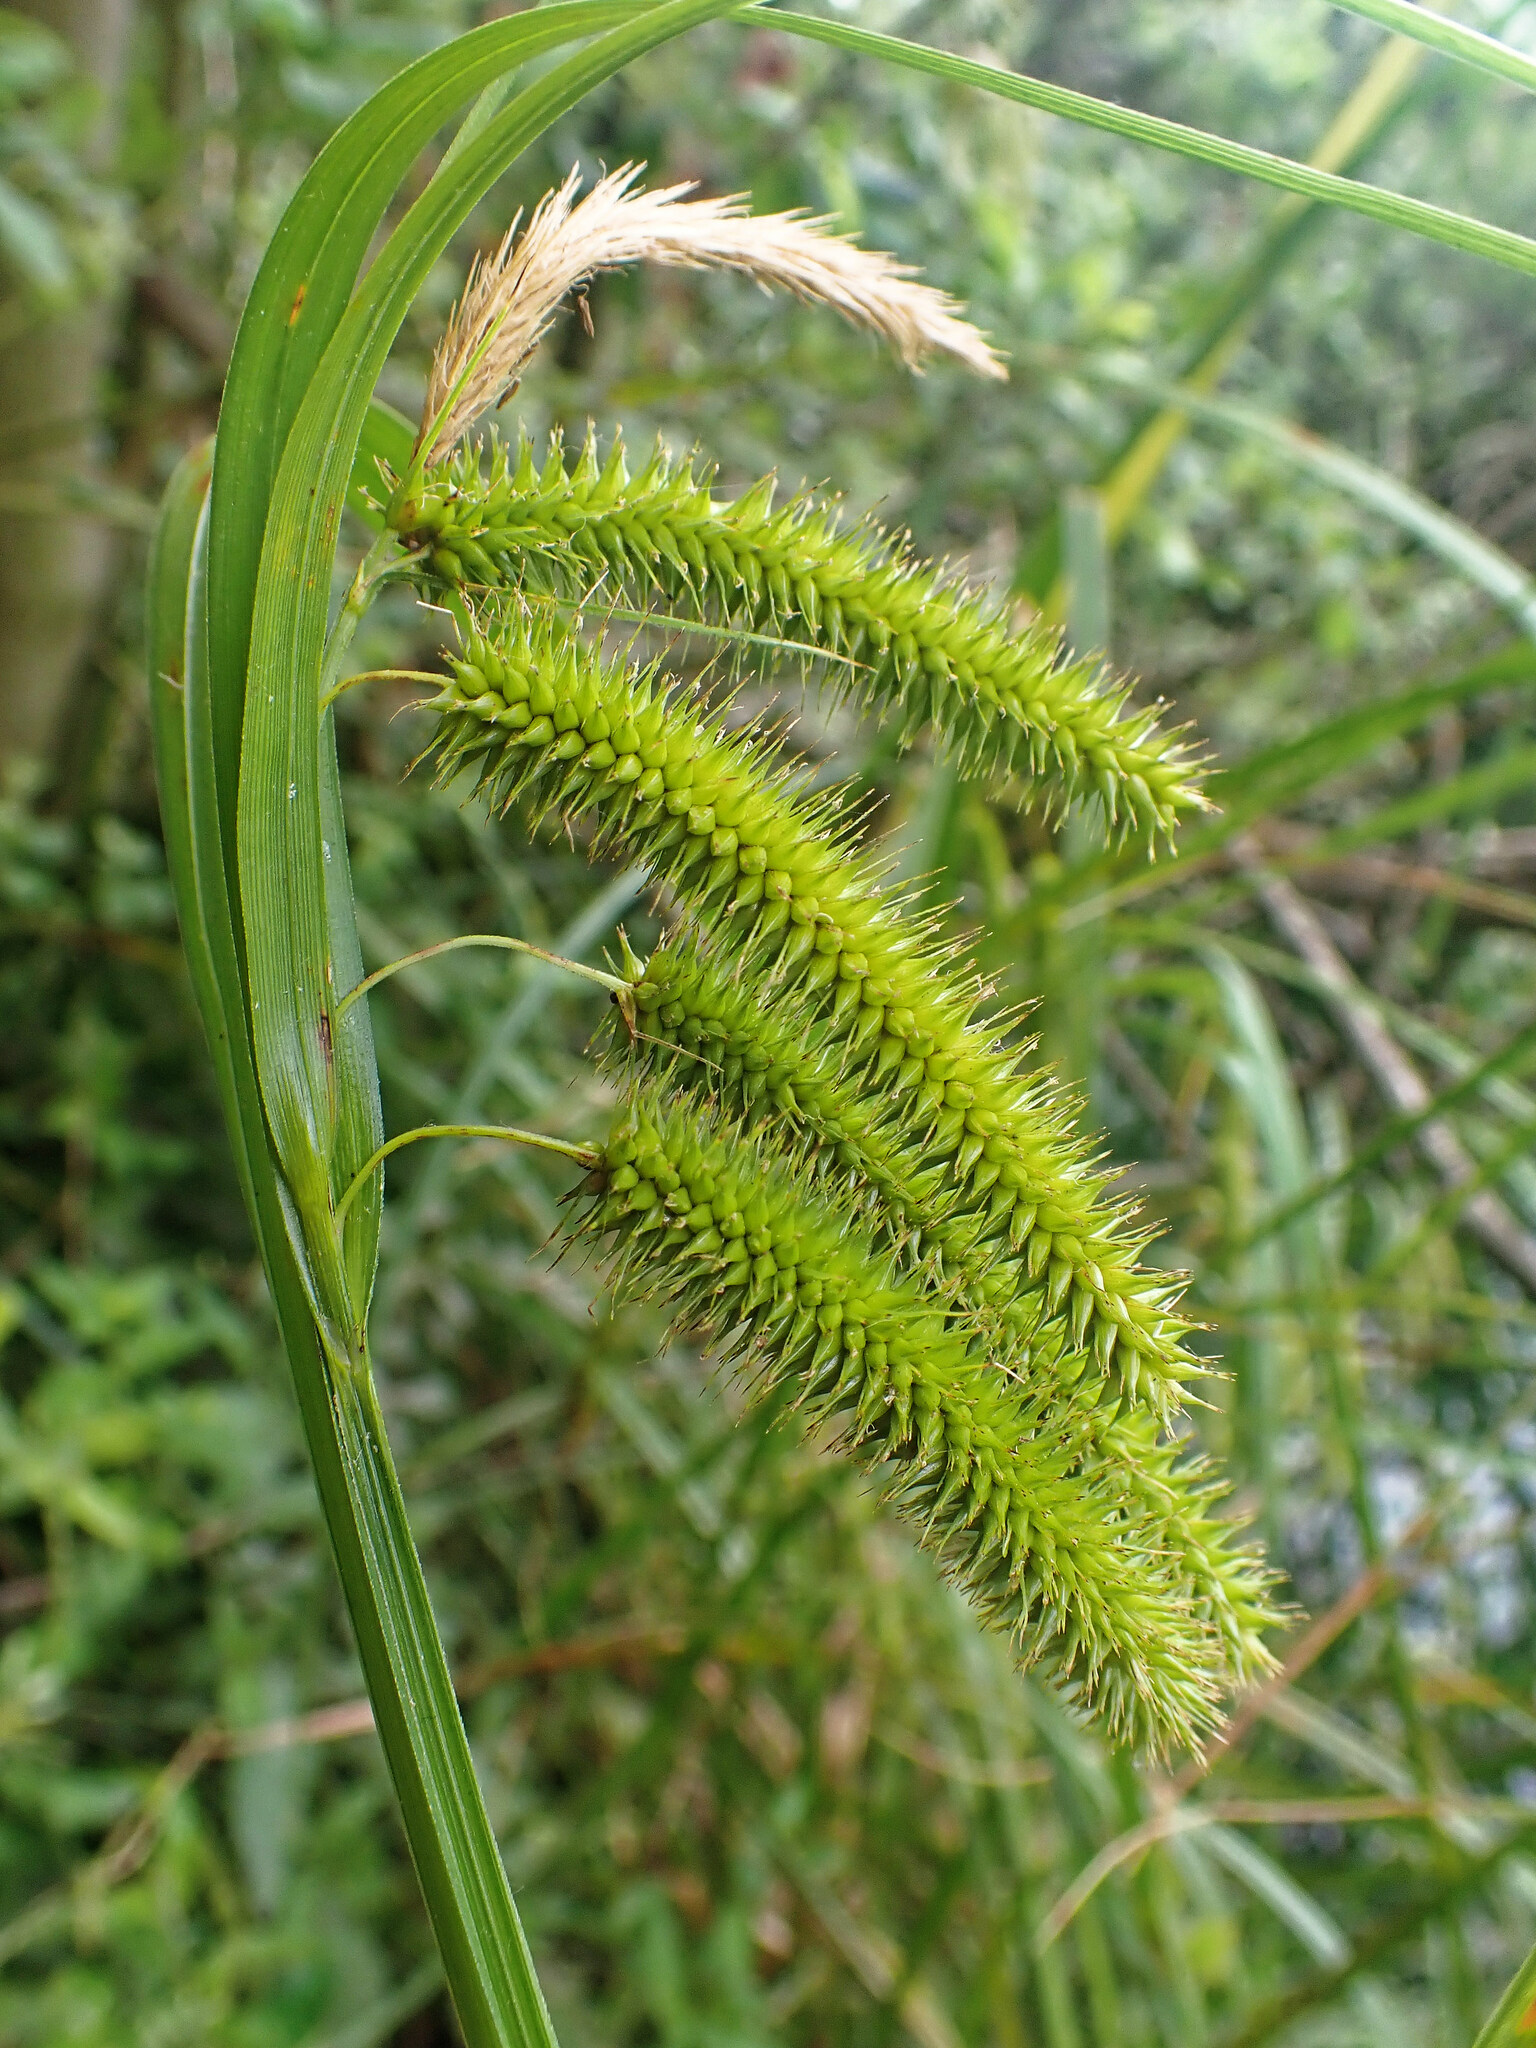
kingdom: Plantae
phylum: Tracheophyta
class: Liliopsida
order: Poales
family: Cyperaceae
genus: Carex
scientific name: Carex pseudocyperus
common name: Cyperus sedge
